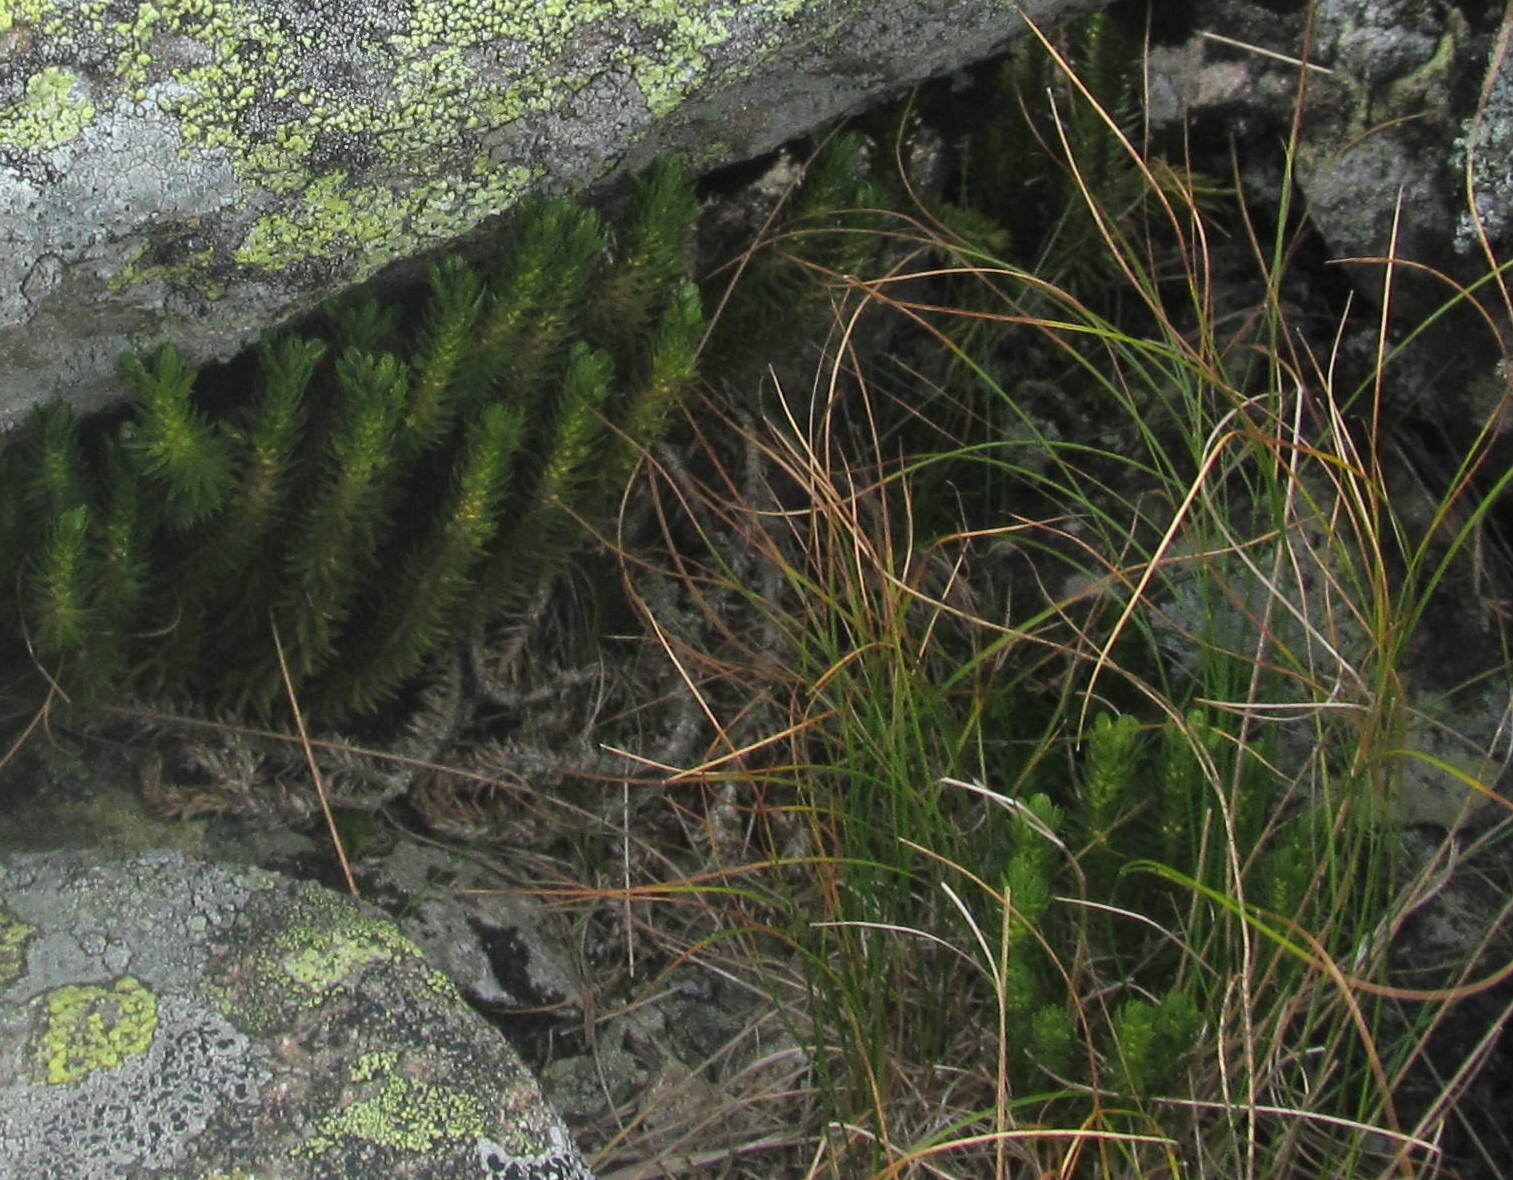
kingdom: Plantae
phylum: Tracheophyta
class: Lycopodiopsida
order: Lycopodiales
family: Lycopodiaceae
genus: Huperzia
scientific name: Huperzia selago
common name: Northern firmoss
